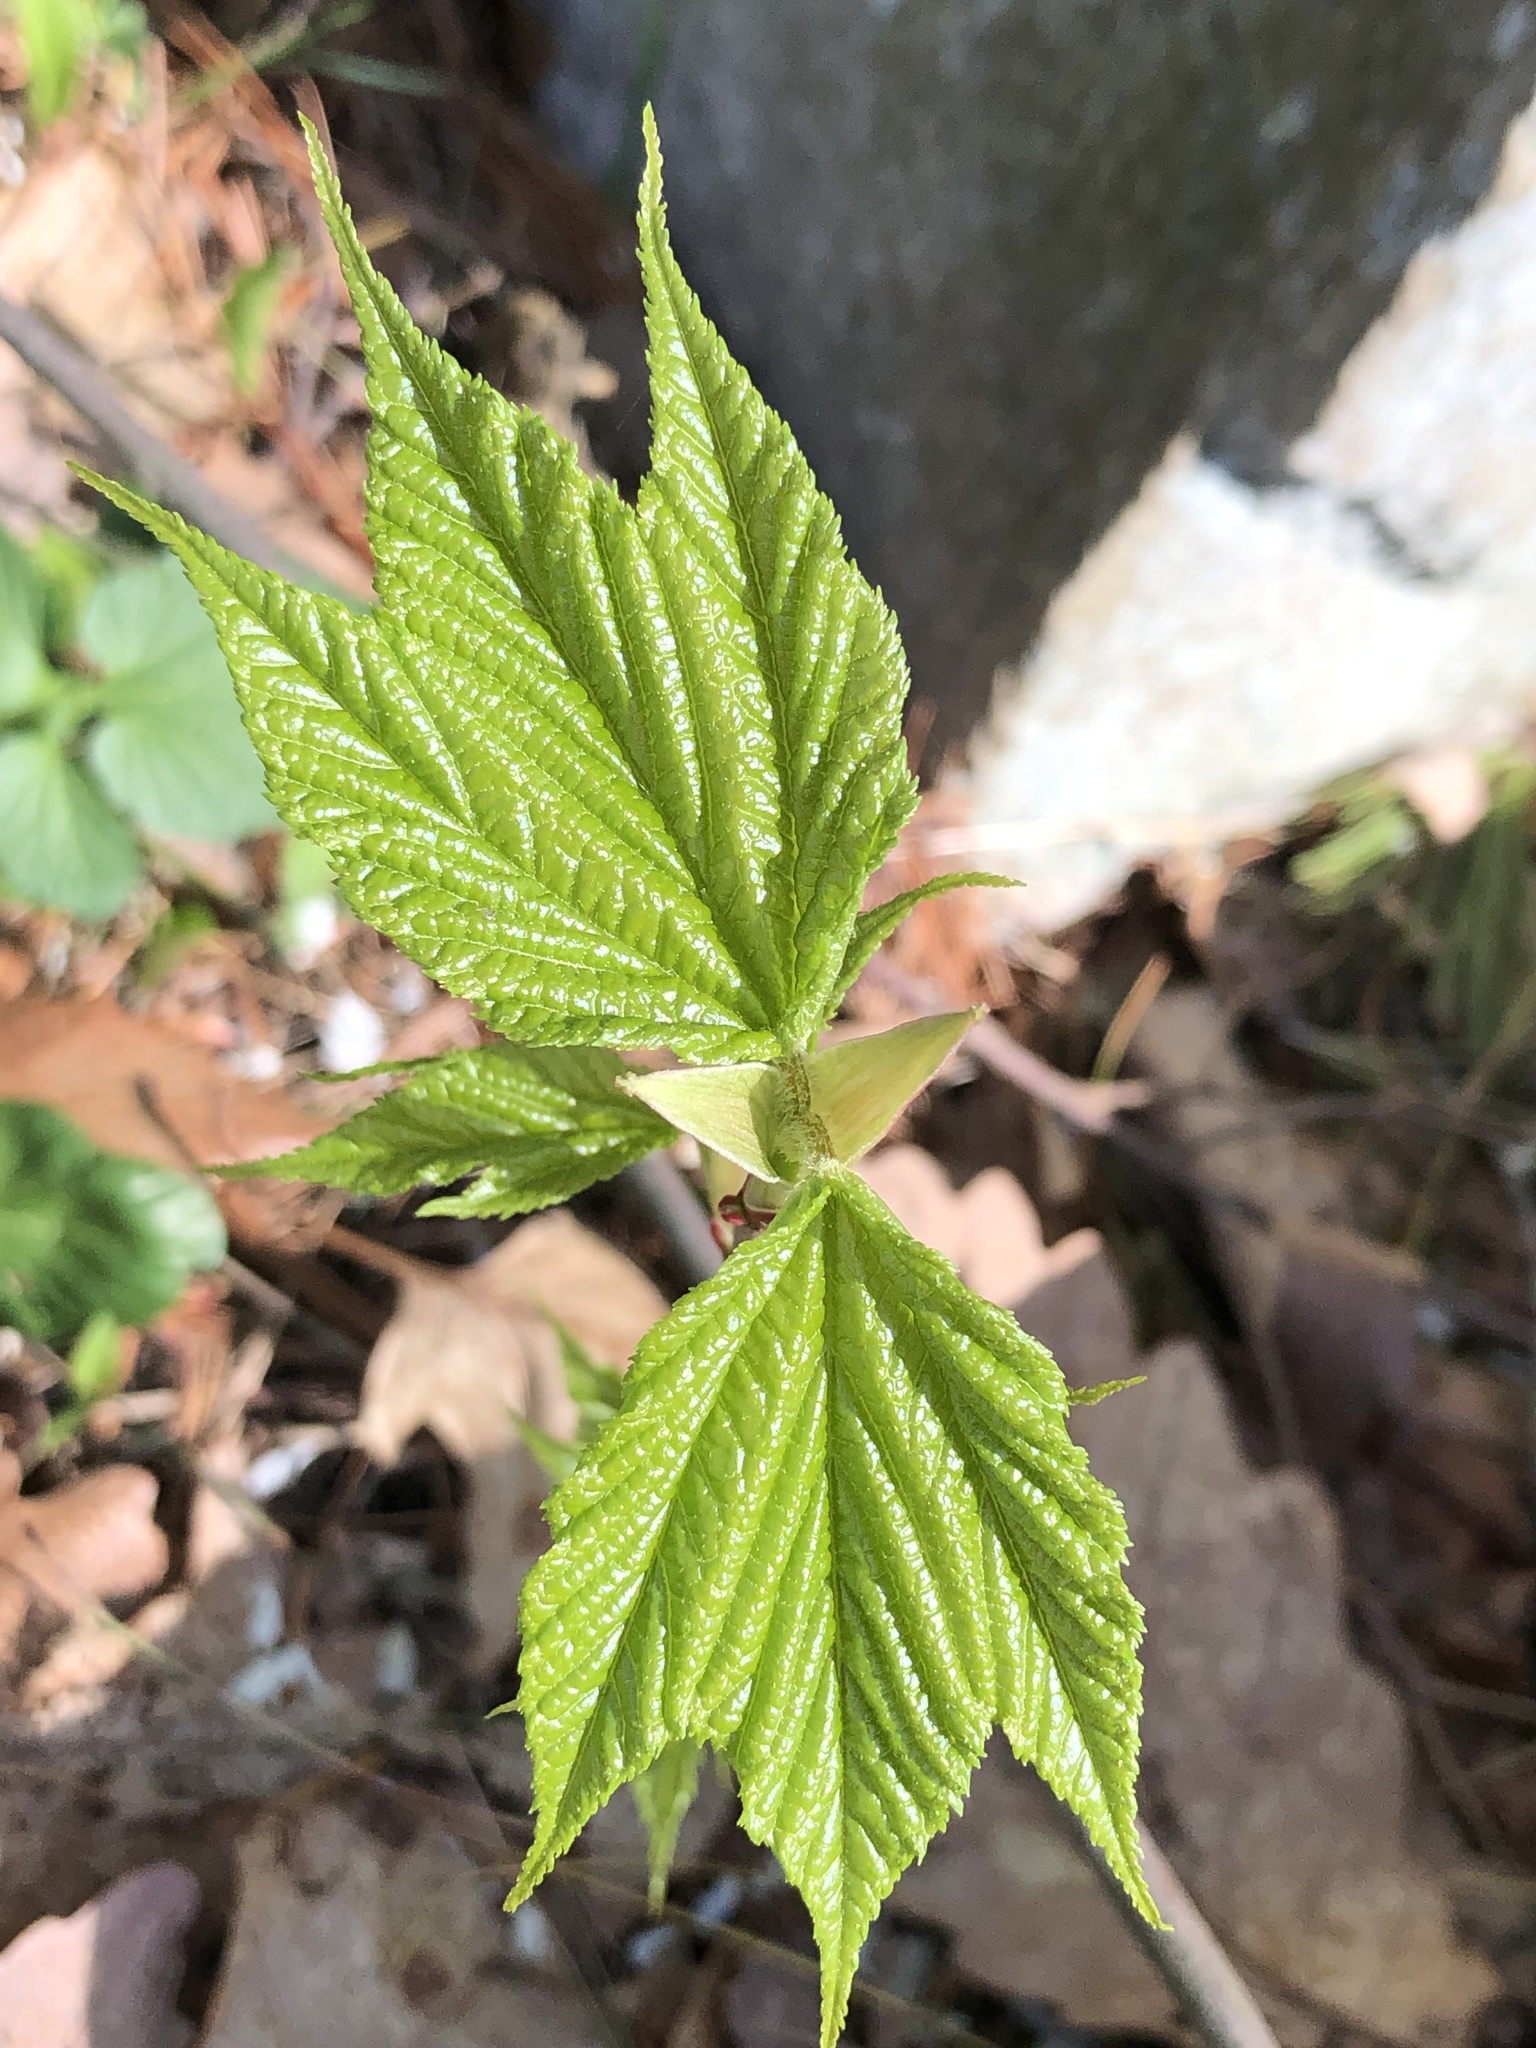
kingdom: Plantae
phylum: Tracheophyta
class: Magnoliopsida
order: Sapindales
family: Sapindaceae
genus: Acer
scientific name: Acer pensylvanicum
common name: Moosewood
